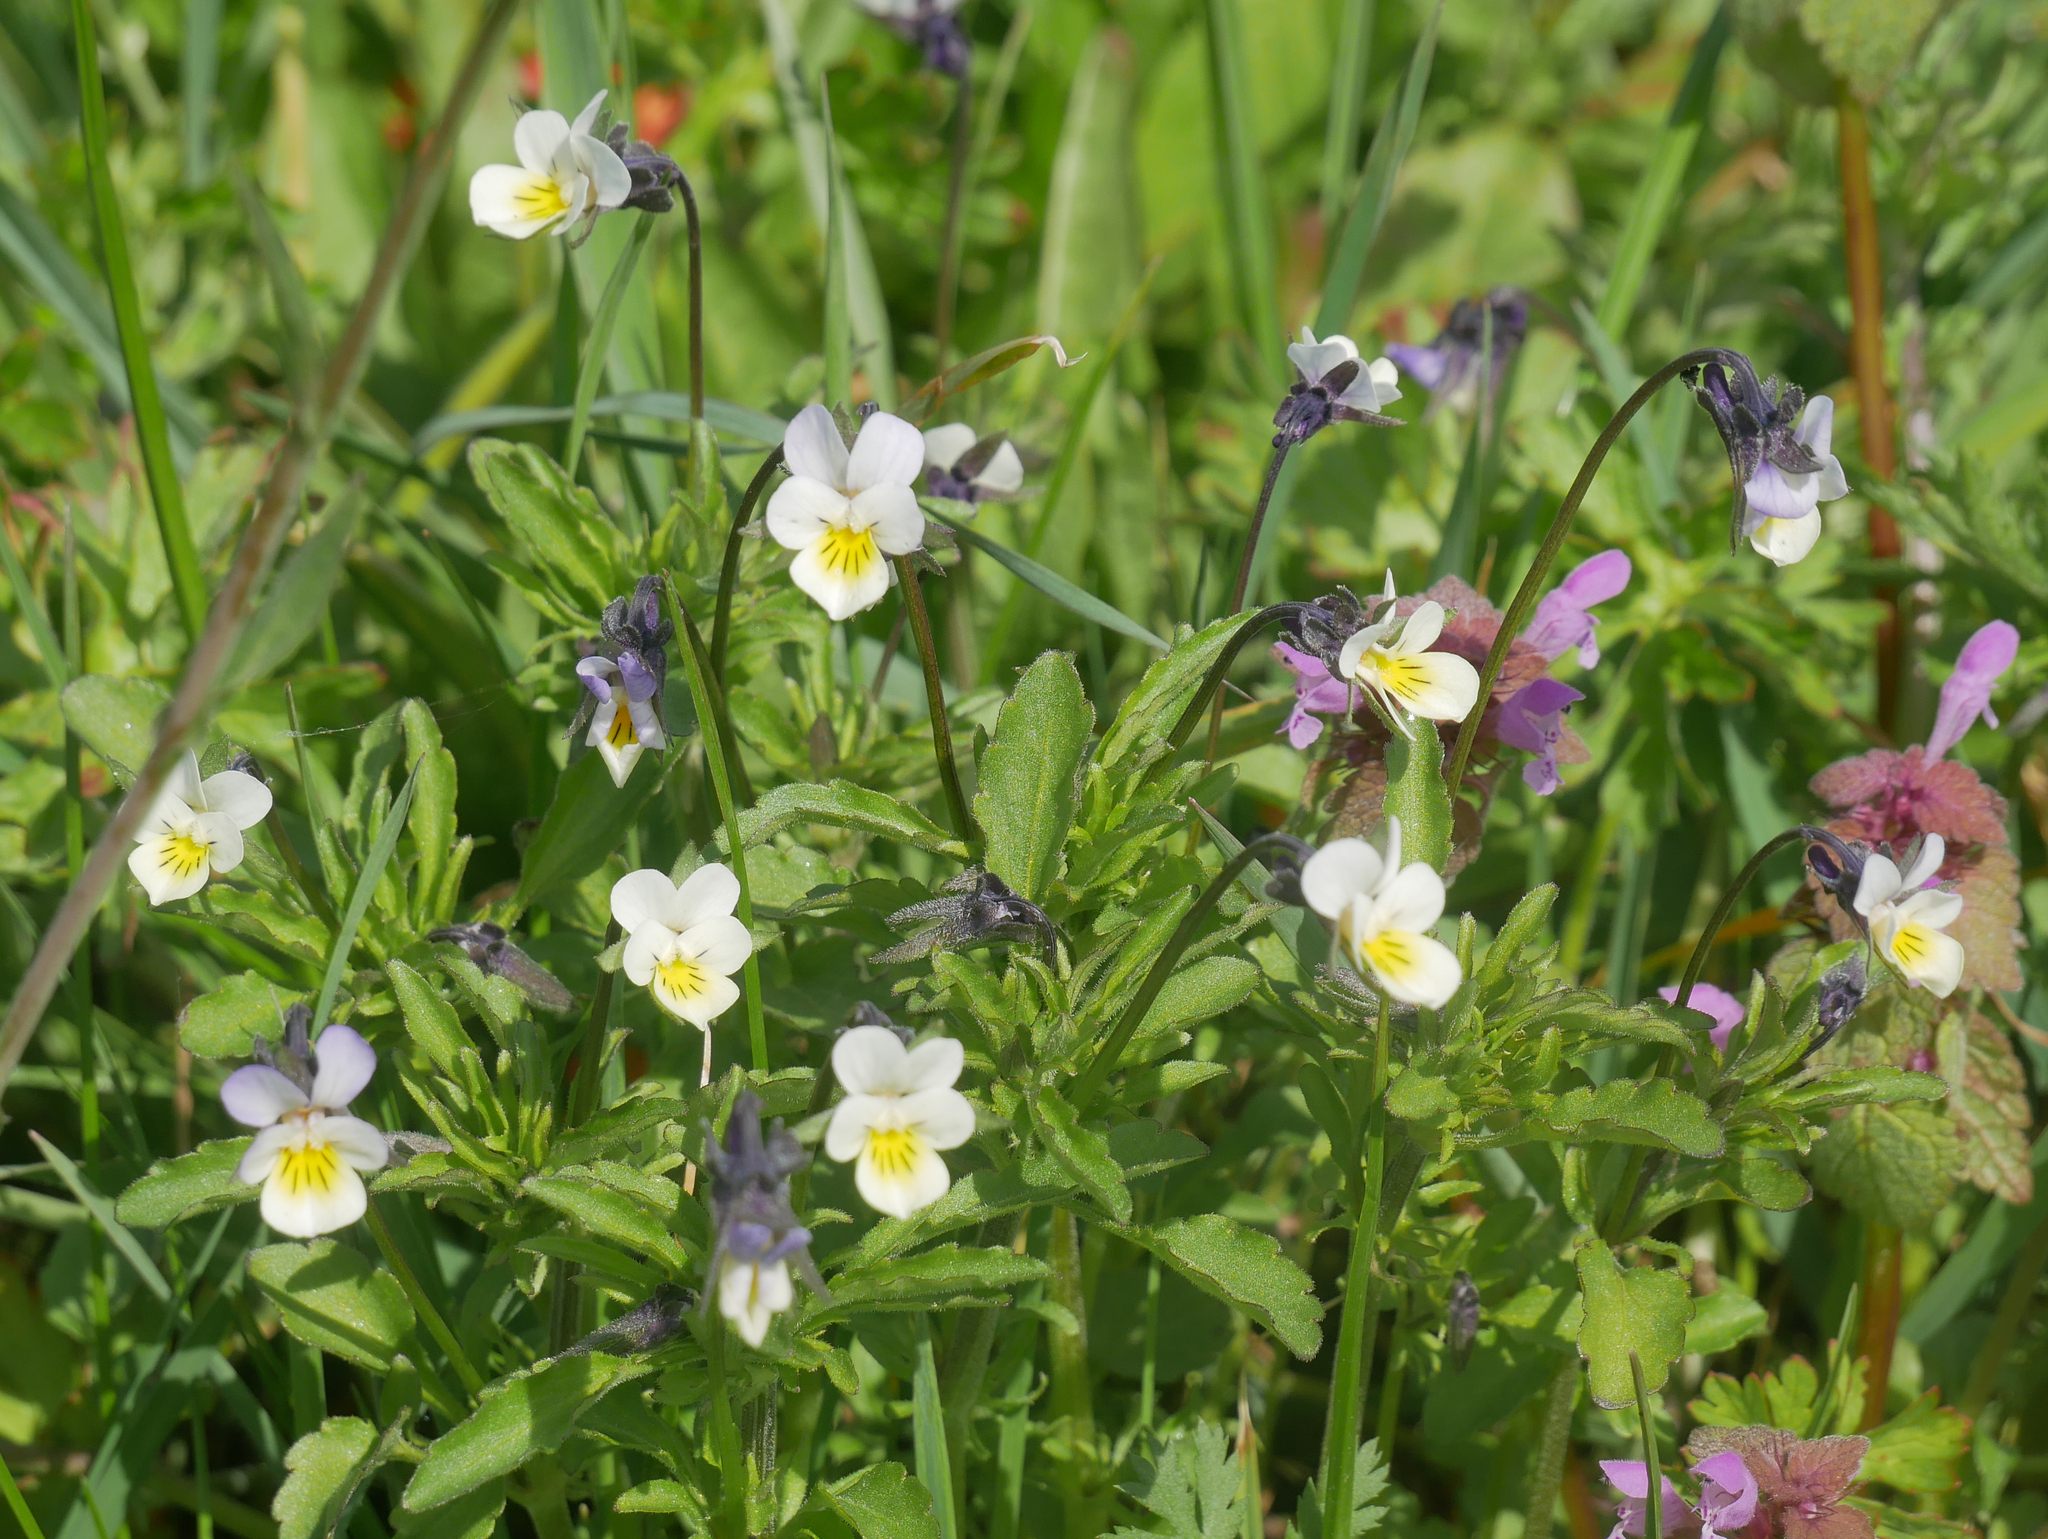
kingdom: Plantae
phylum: Tracheophyta
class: Magnoliopsida
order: Malpighiales
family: Violaceae
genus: Viola
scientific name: Viola arvensis
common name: Field pansy
